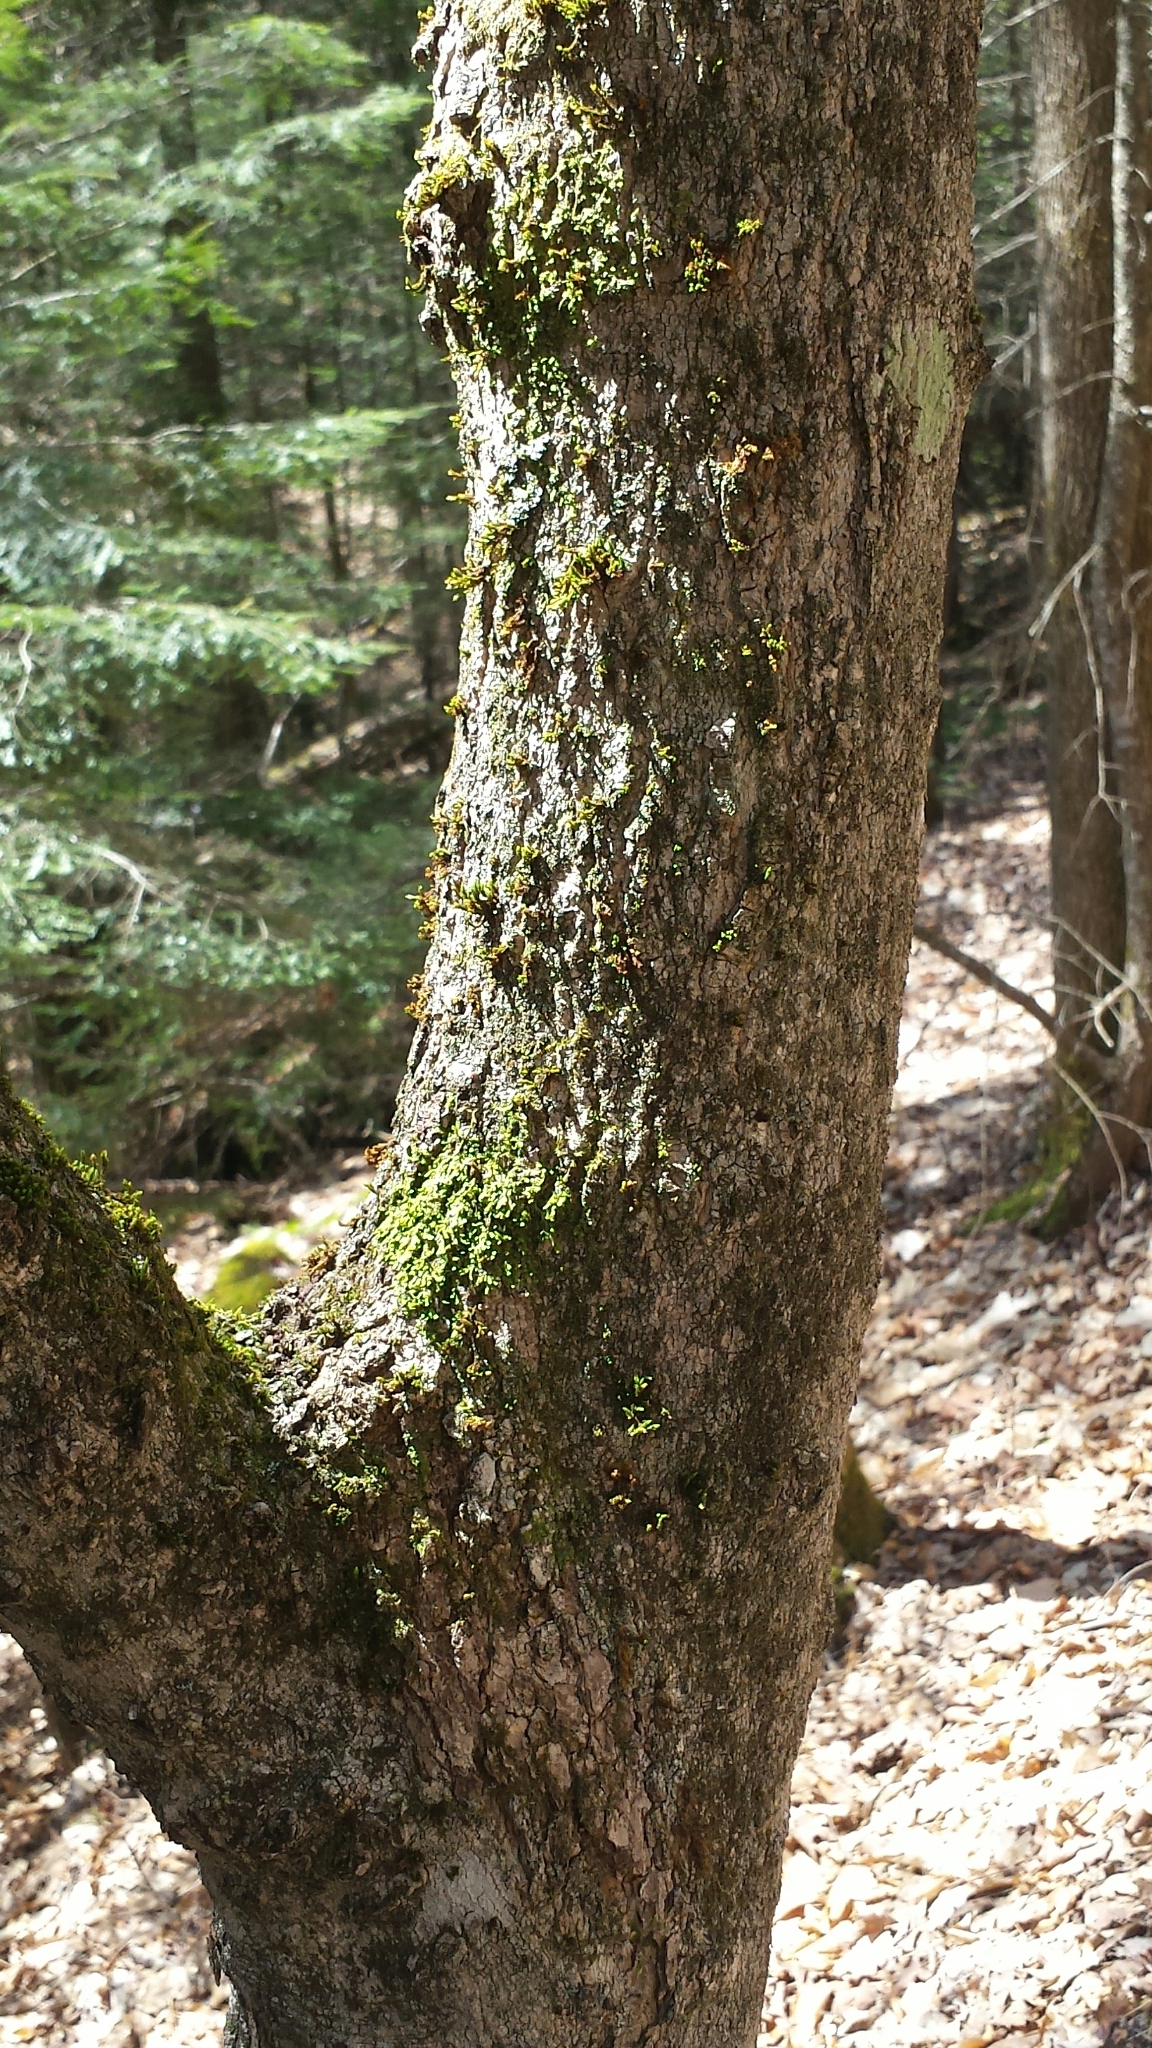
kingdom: Plantae
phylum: Tracheophyta
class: Magnoliopsida
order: Sapindales
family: Sapindaceae
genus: Acer
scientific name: Acer saccharum
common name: Sugar maple
